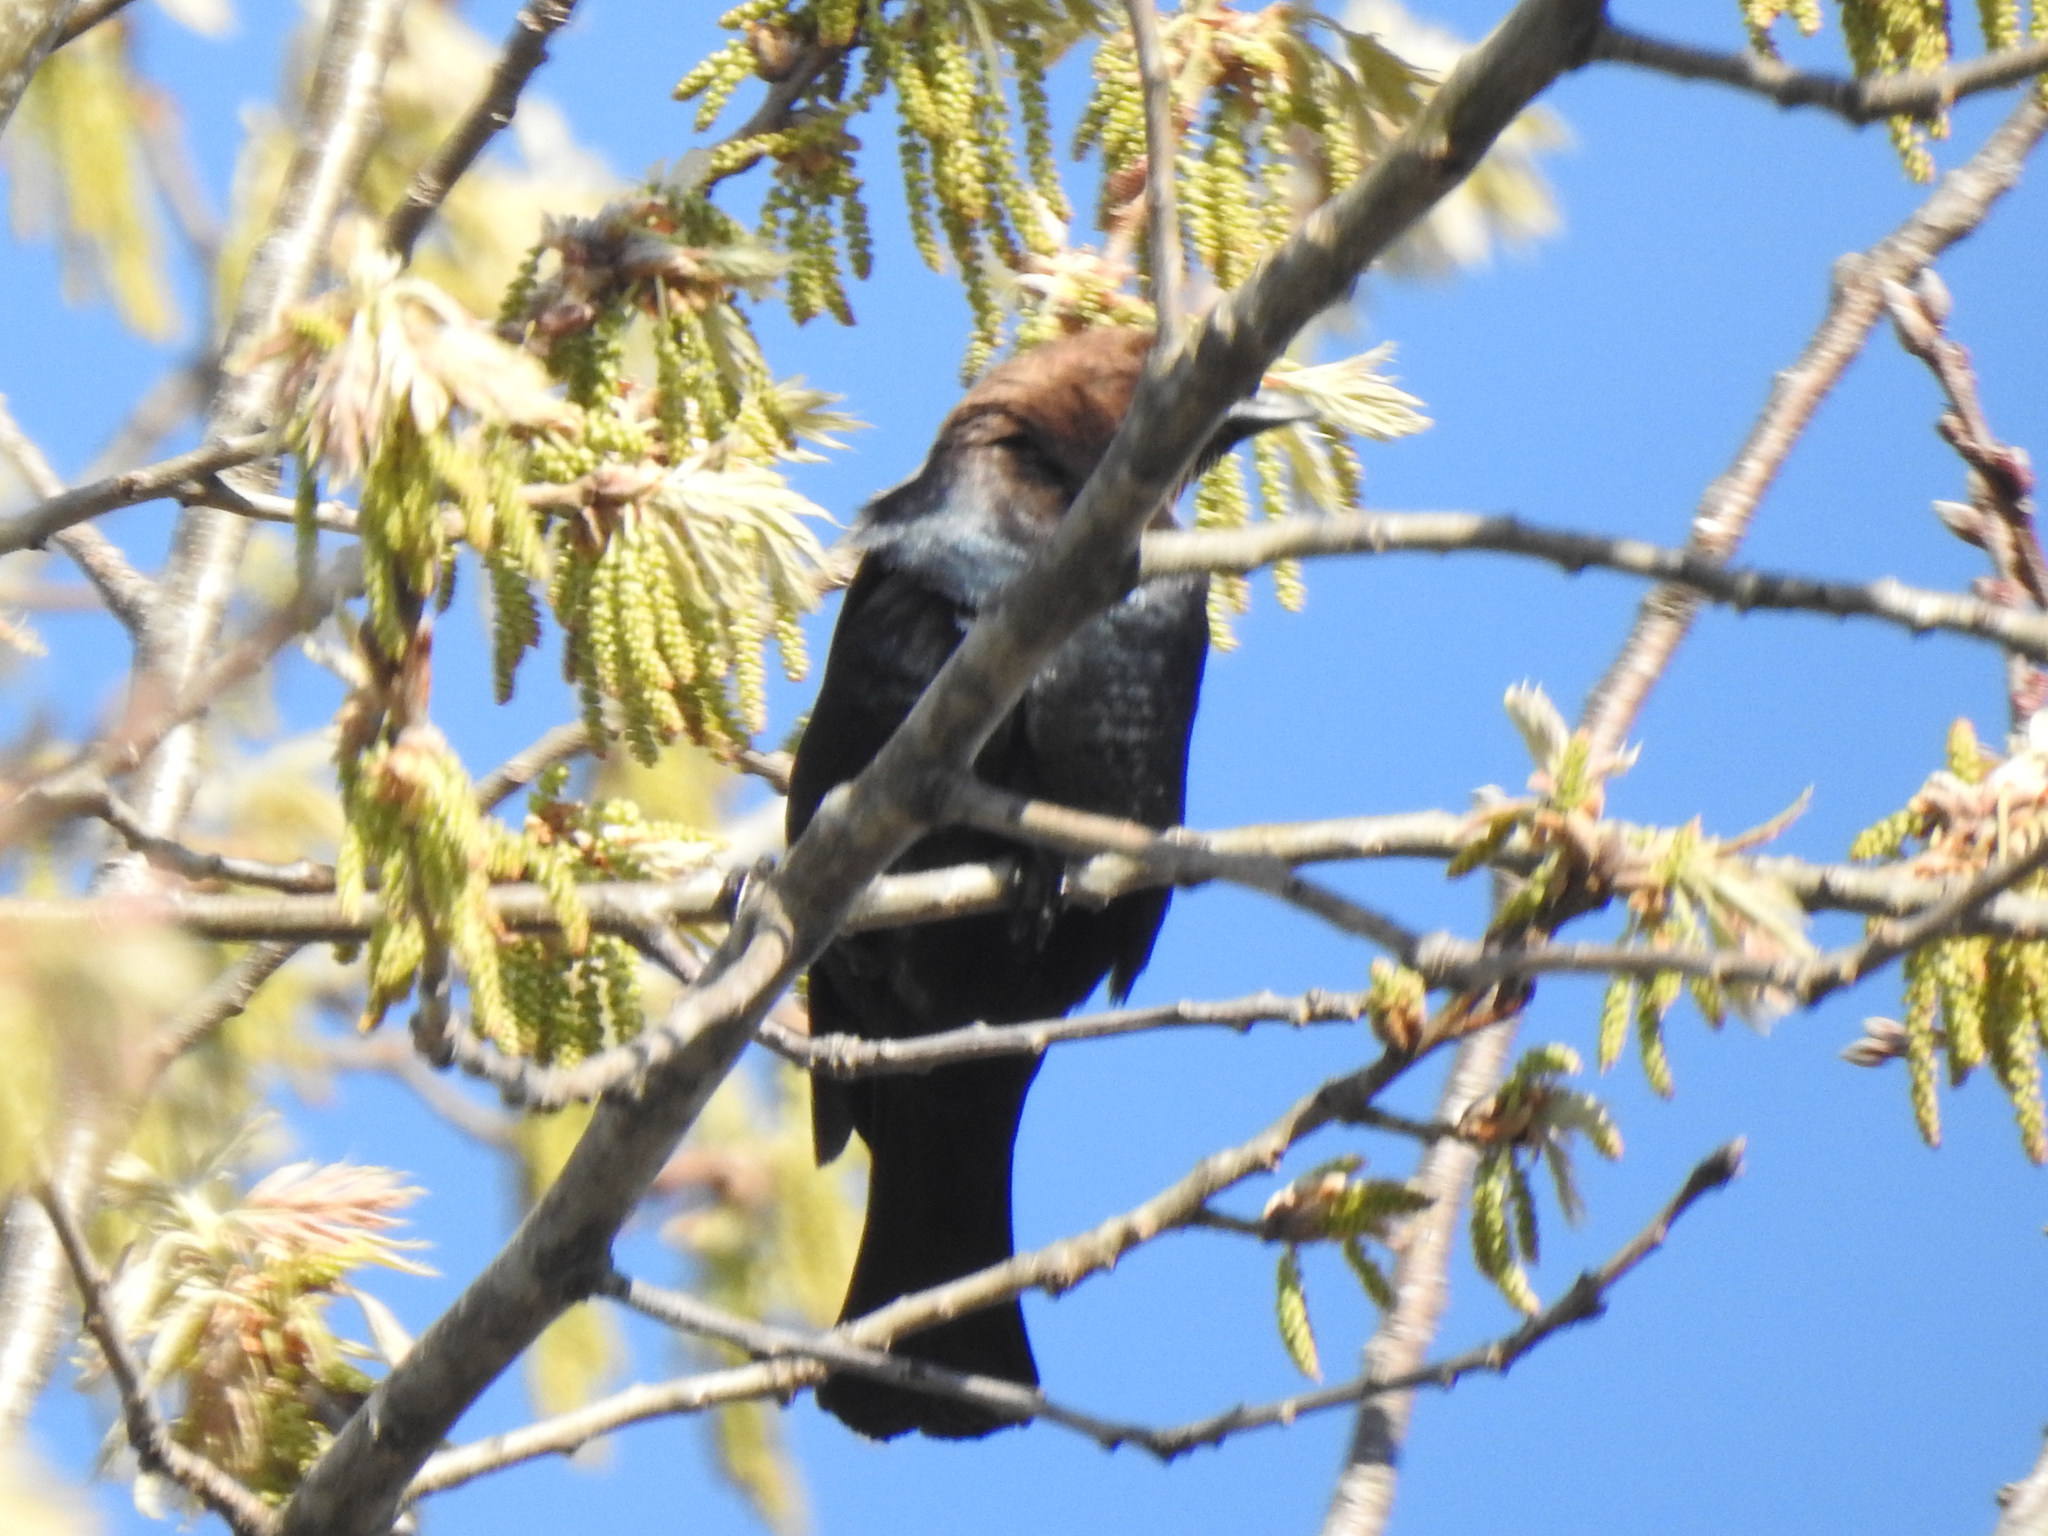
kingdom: Animalia
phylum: Chordata
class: Aves
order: Passeriformes
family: Icteridae
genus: Molothrus
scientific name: Molothrus ater
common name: Brown-headed cowbird
